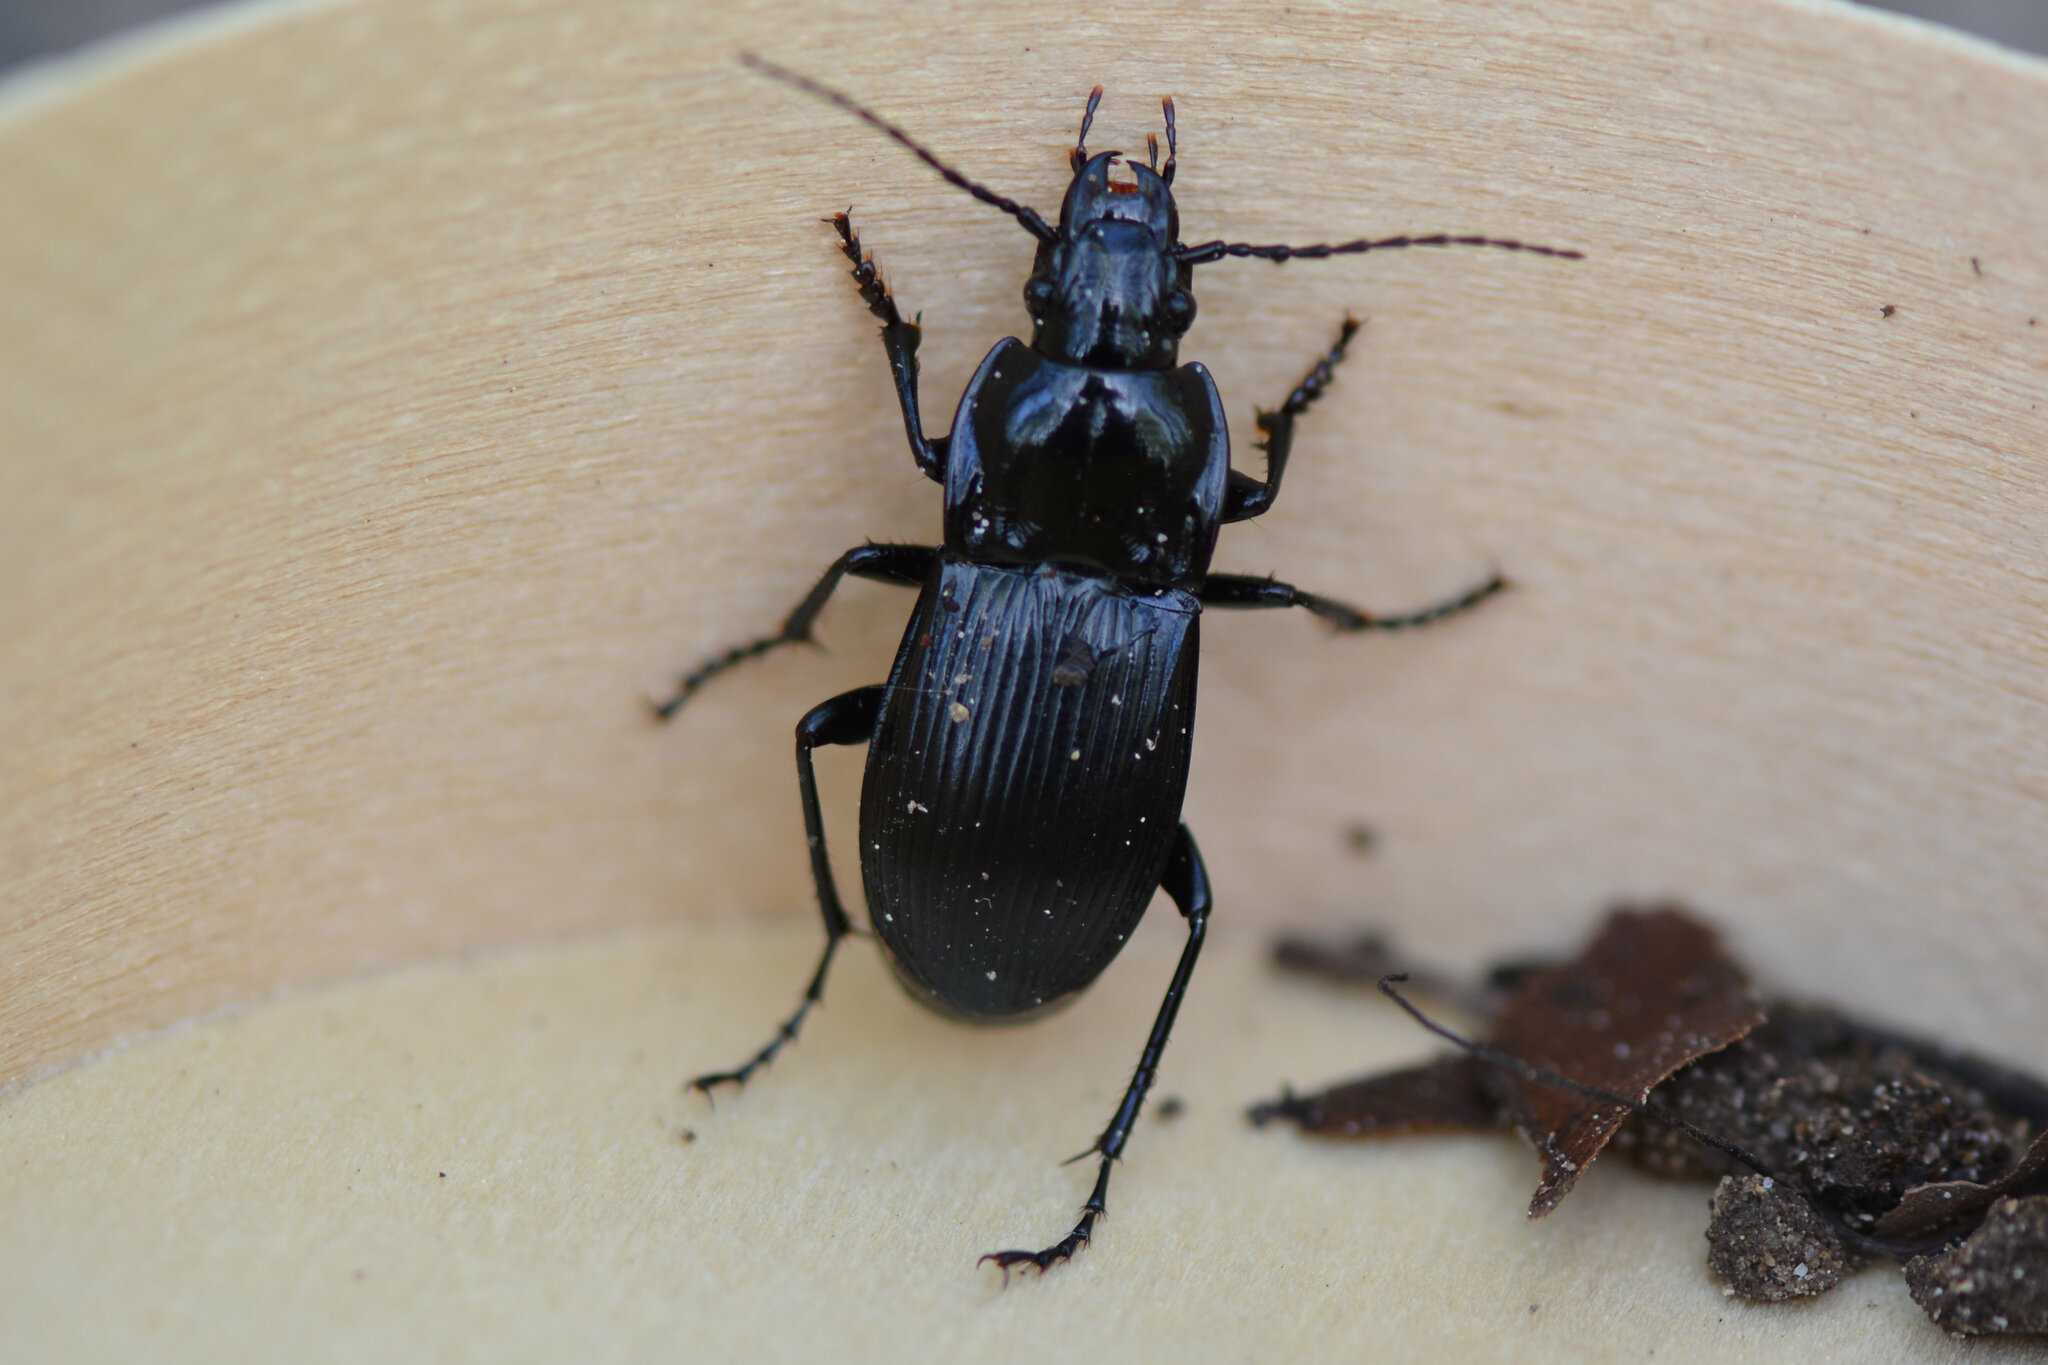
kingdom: Animalia
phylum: Arthropoda
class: Insecta
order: Coleoptera
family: Carabidae
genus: Abax
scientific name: Abax parallelepipedus
